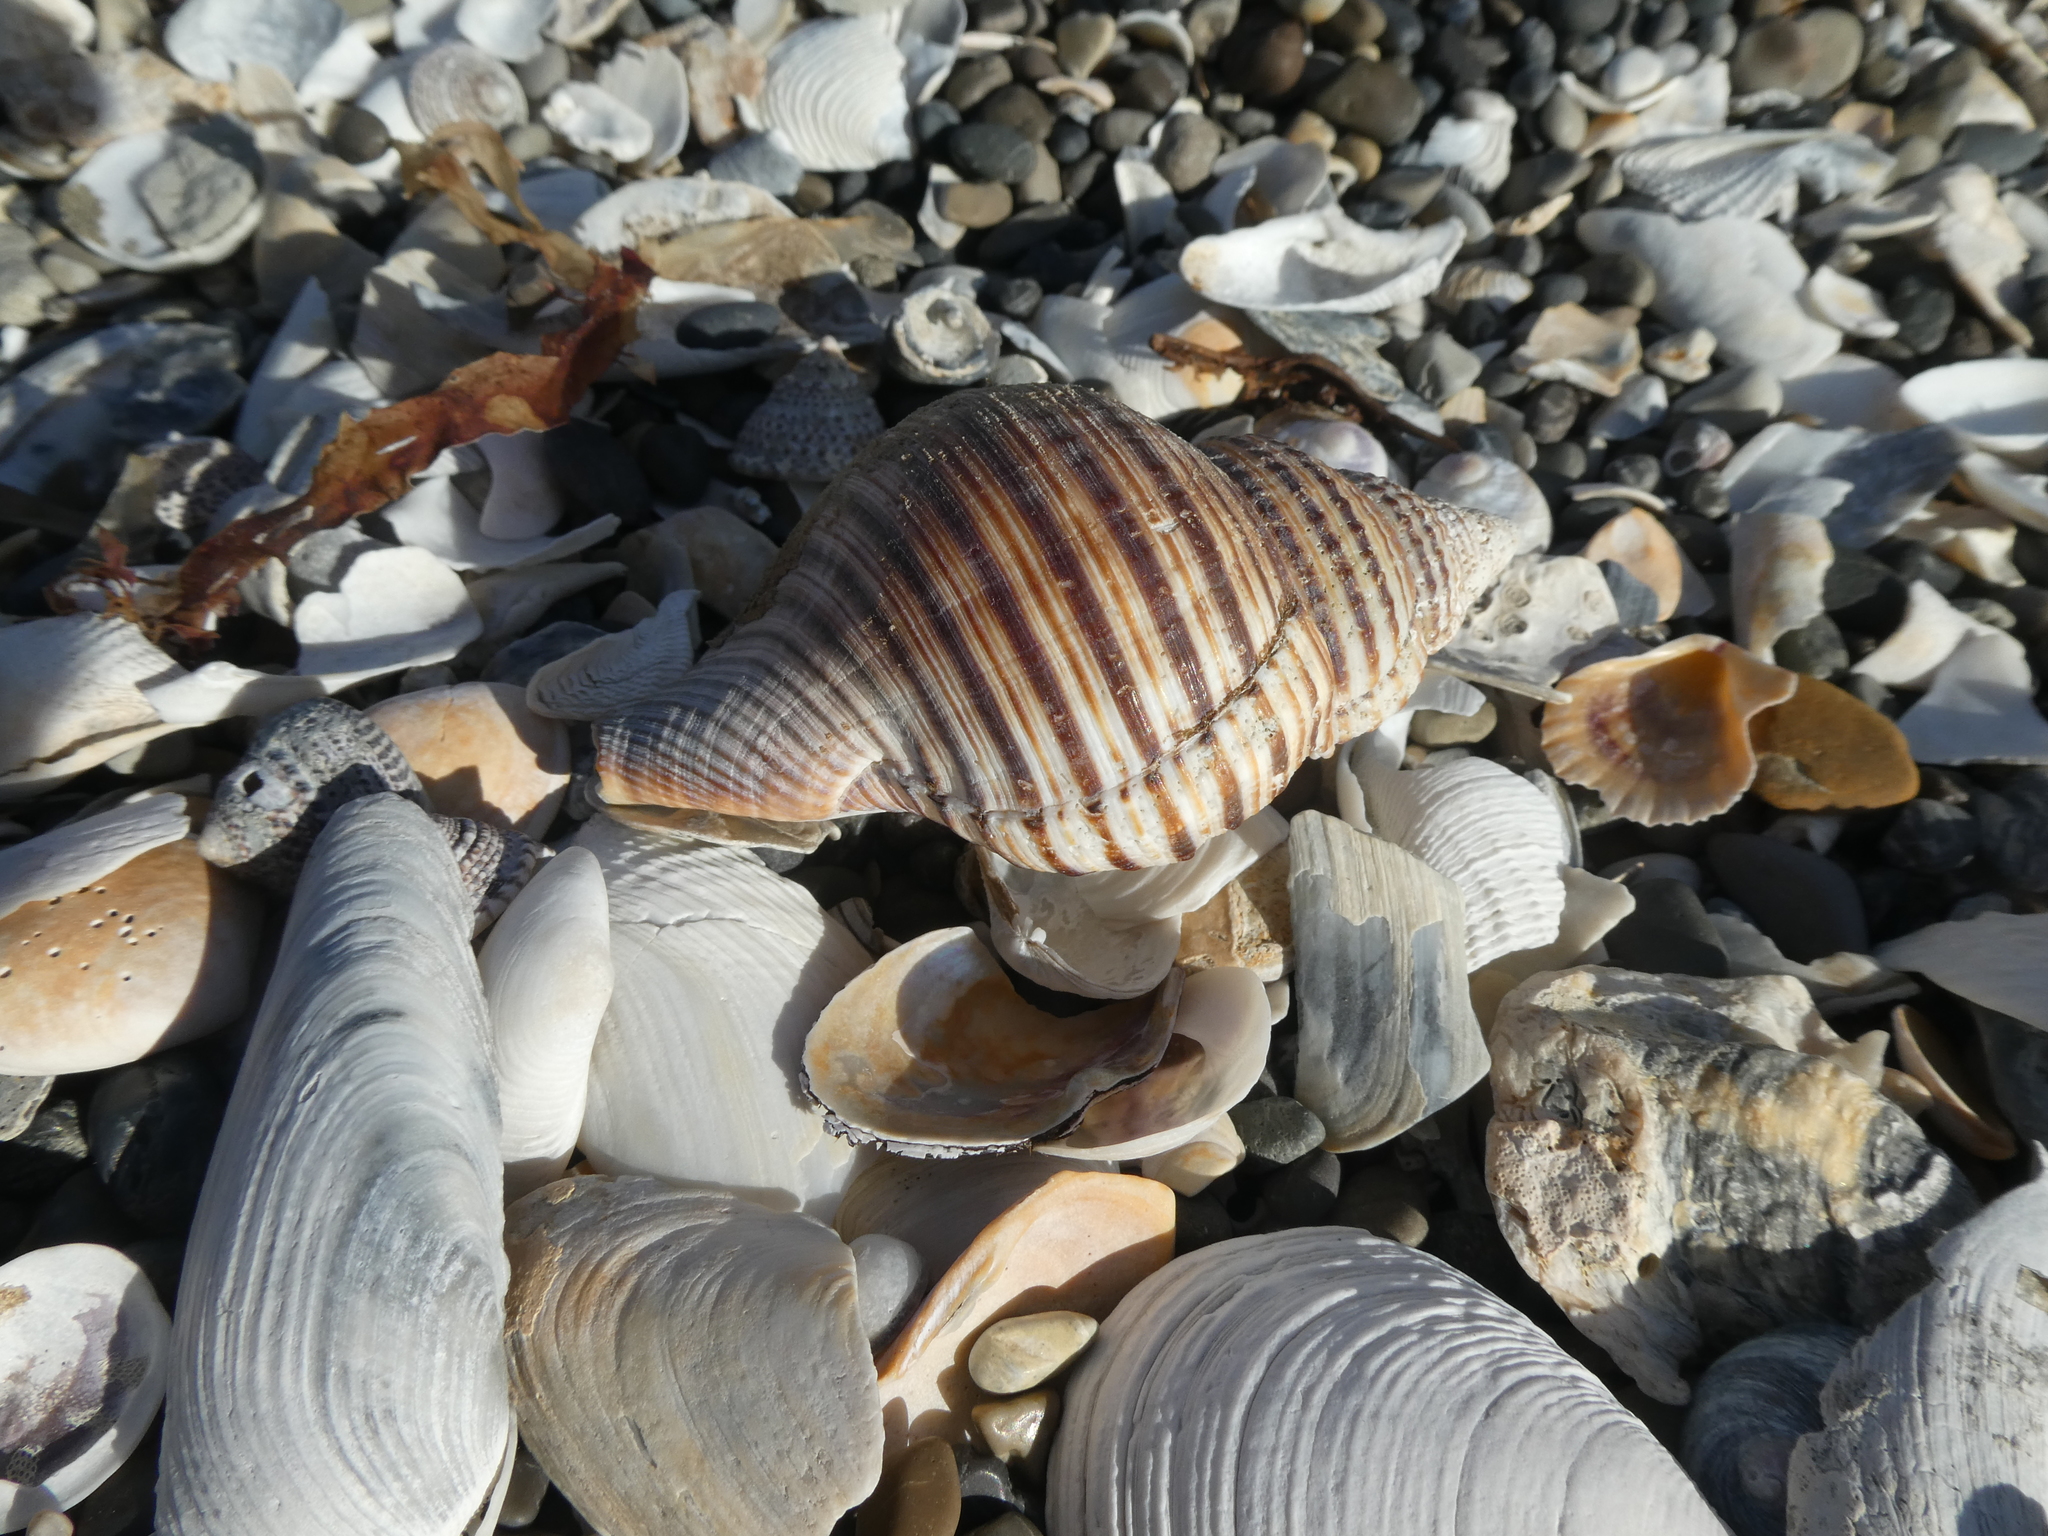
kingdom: Animalia
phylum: Mollusca
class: Gastropoda
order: Littorinimorpha
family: Cymatiidae
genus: Argobuccinum
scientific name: Argobuccinum pustulosum
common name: Pustular triton
